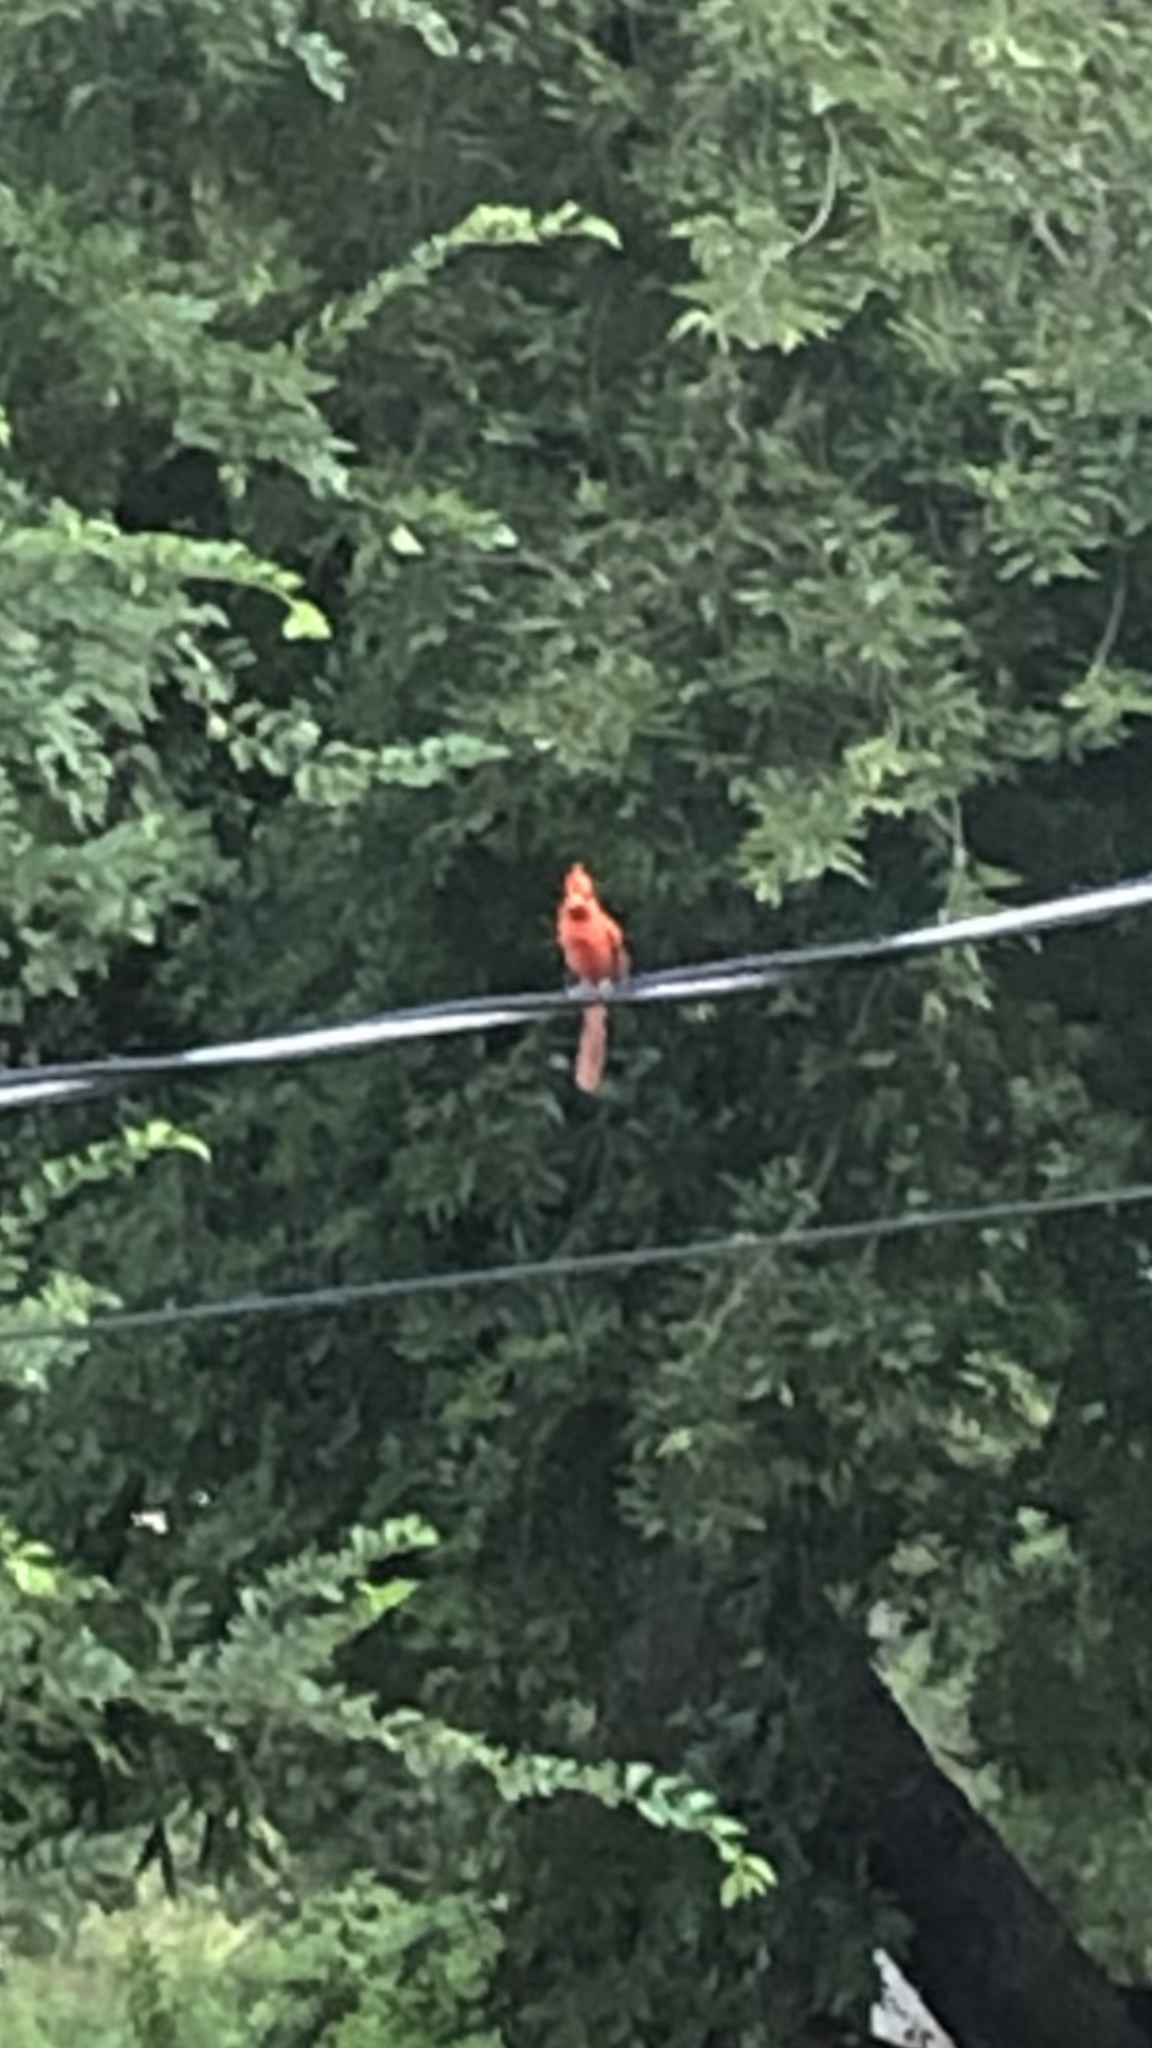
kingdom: Animalia
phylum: Chordata
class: Aves
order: Passeriformes
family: Cardinalidae
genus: Cardinalis
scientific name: Cardinalis cardinalis
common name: Northern cardinal
